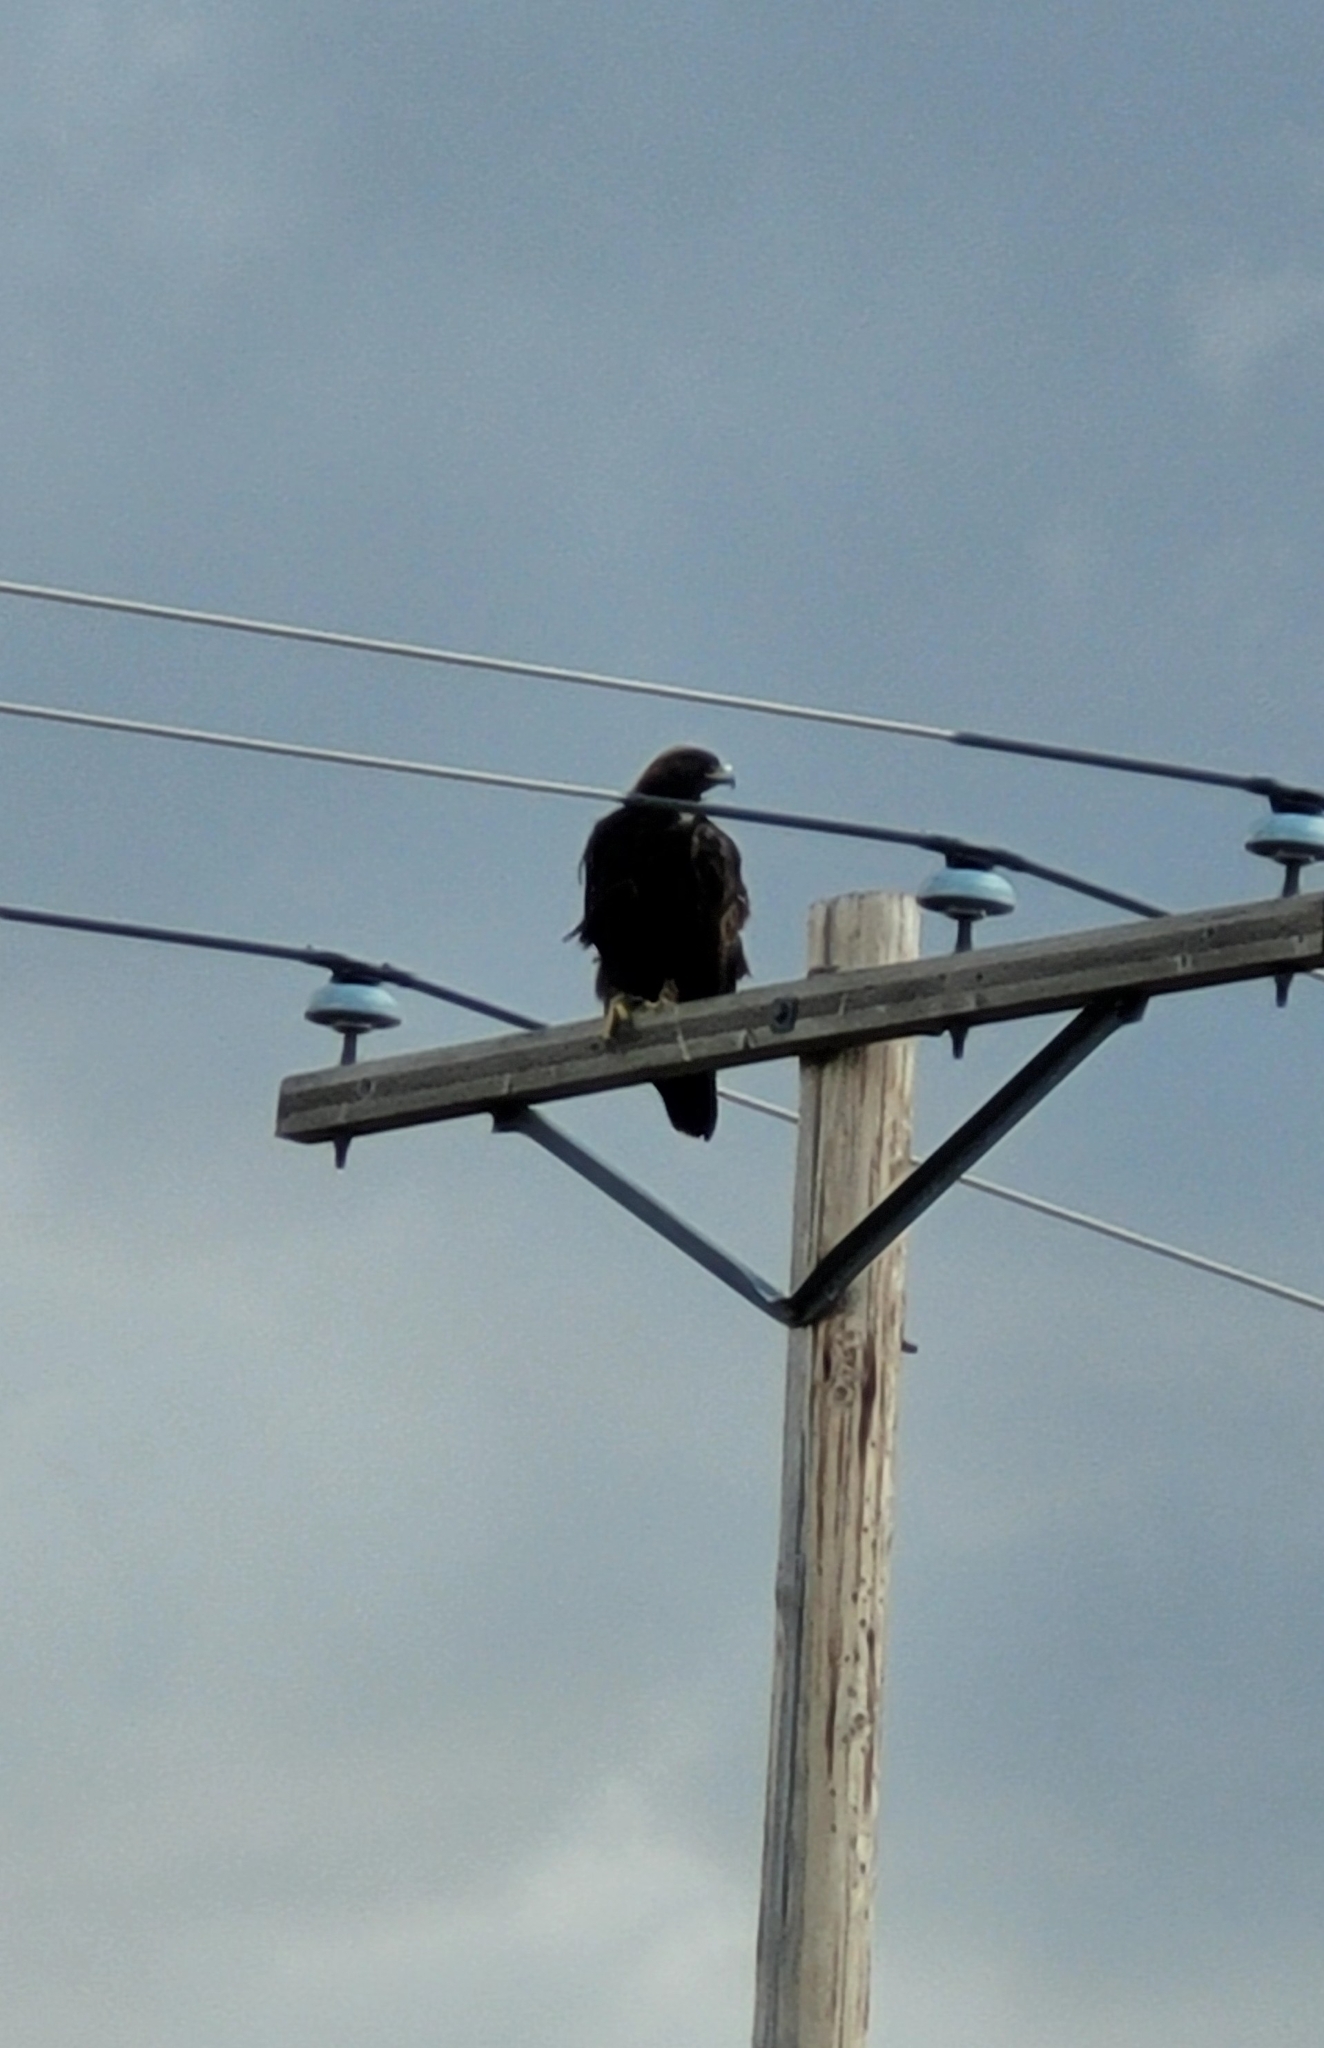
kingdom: Animalia
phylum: Chordata
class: Aves
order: Accipitriformes
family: Accipitridae
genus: Aquila
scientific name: Aquila chrysaetos
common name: Golden eagle
